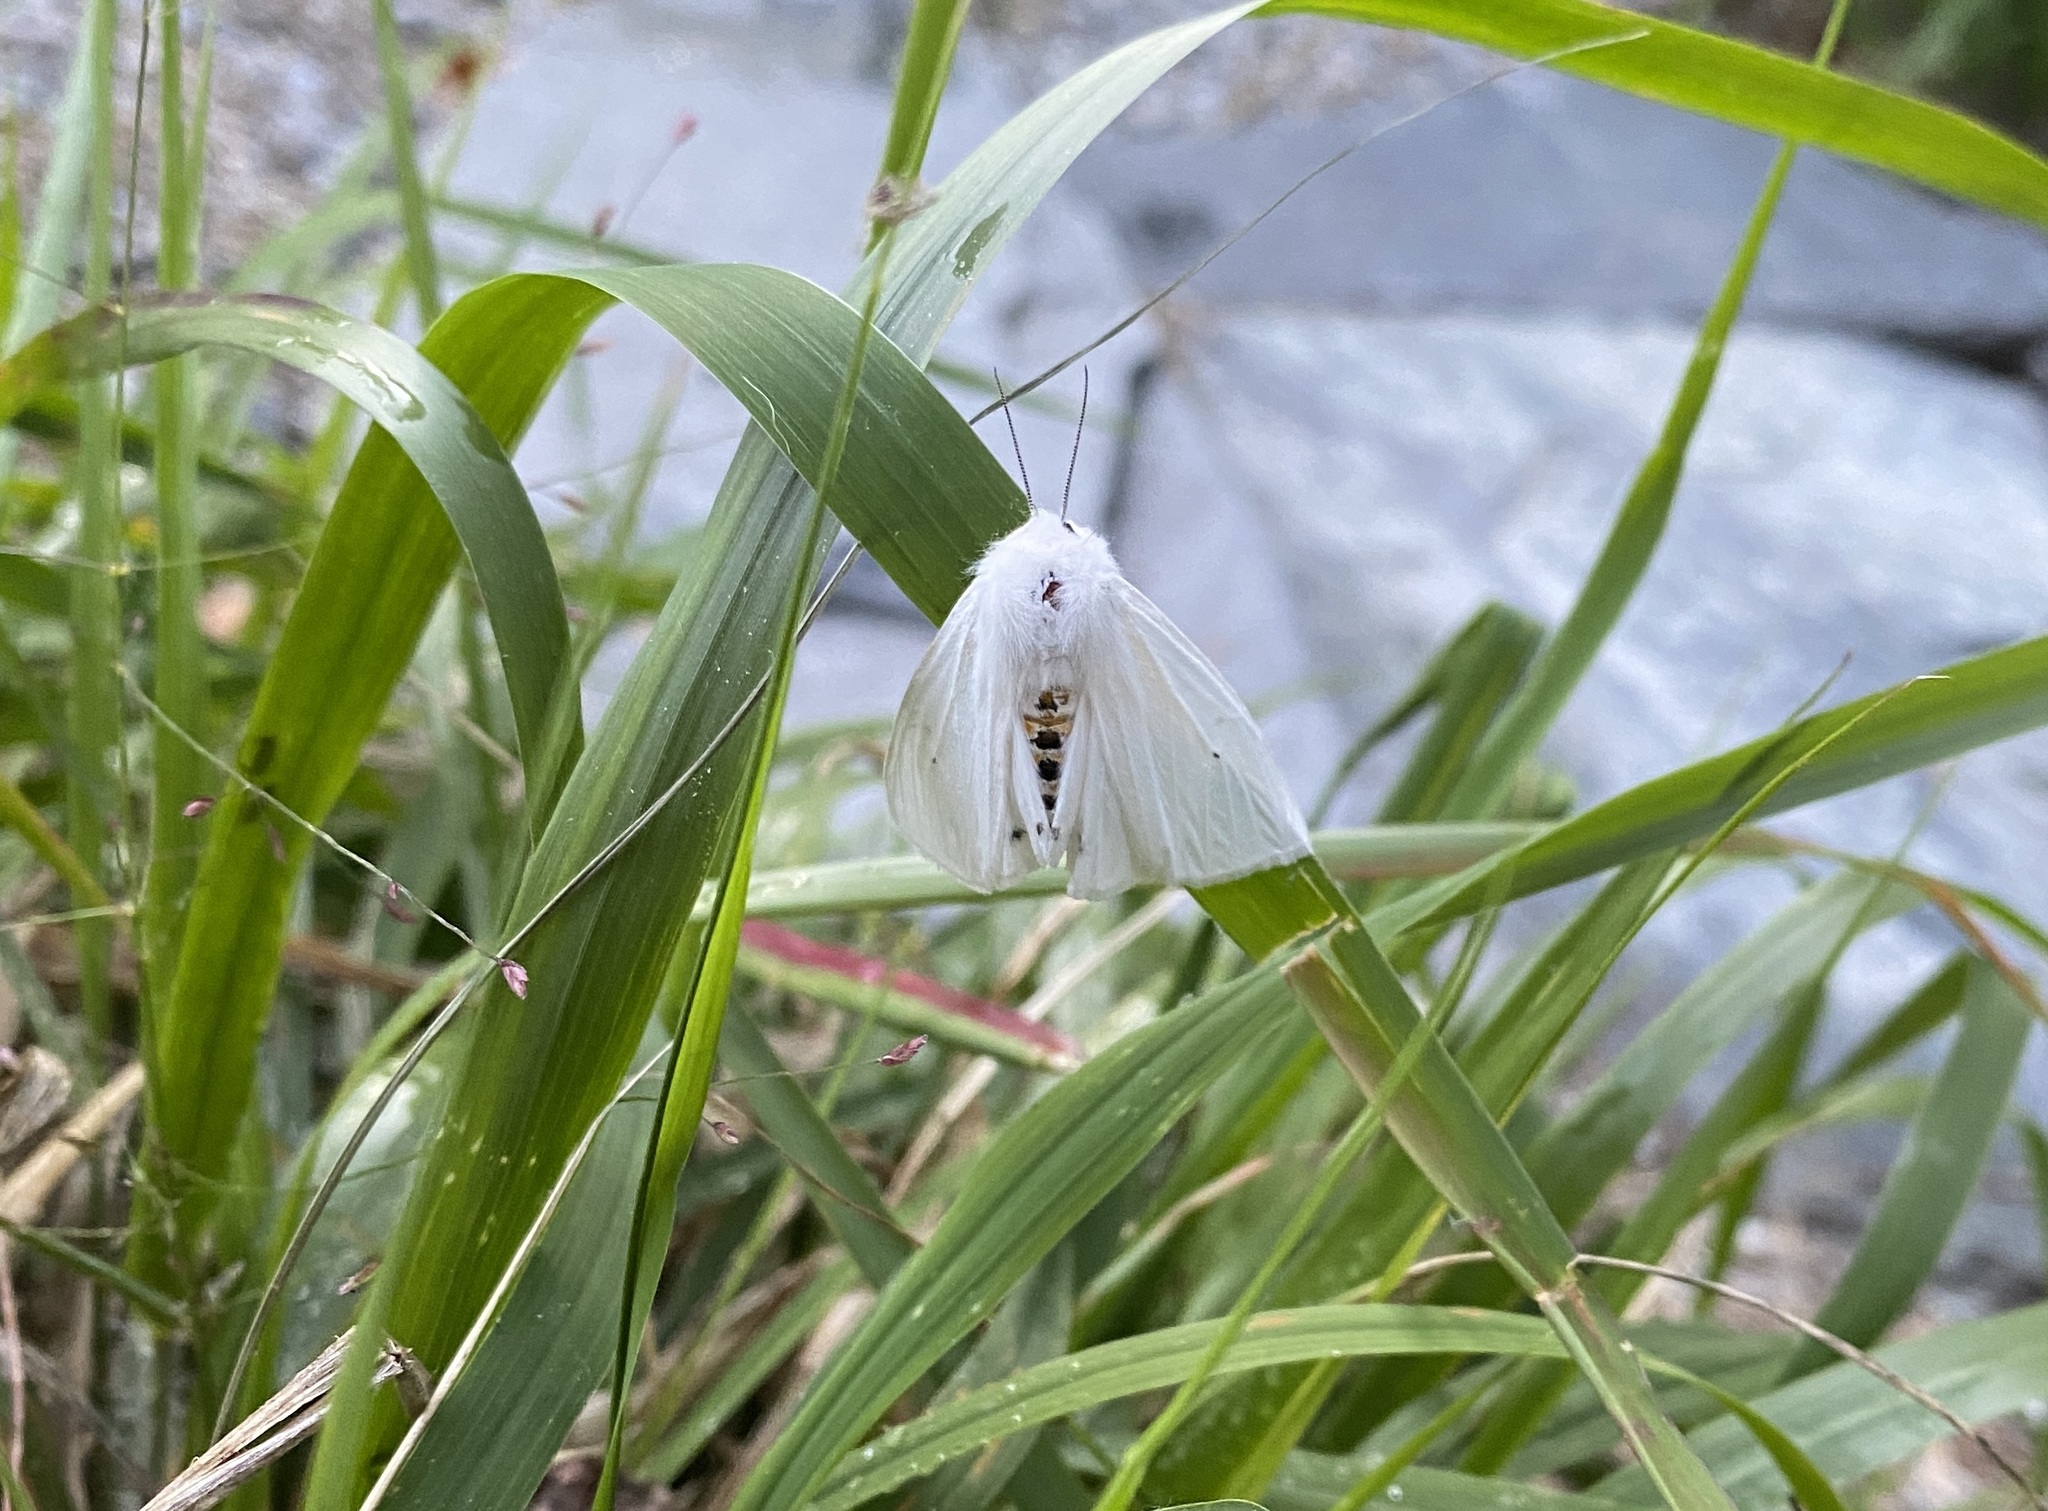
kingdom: Animalia
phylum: Arthropoda
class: Insecta
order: Lepidoptera
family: Erebidae
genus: Spilosoma
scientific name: Spilosoma virginica
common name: Virginia tiger moth
